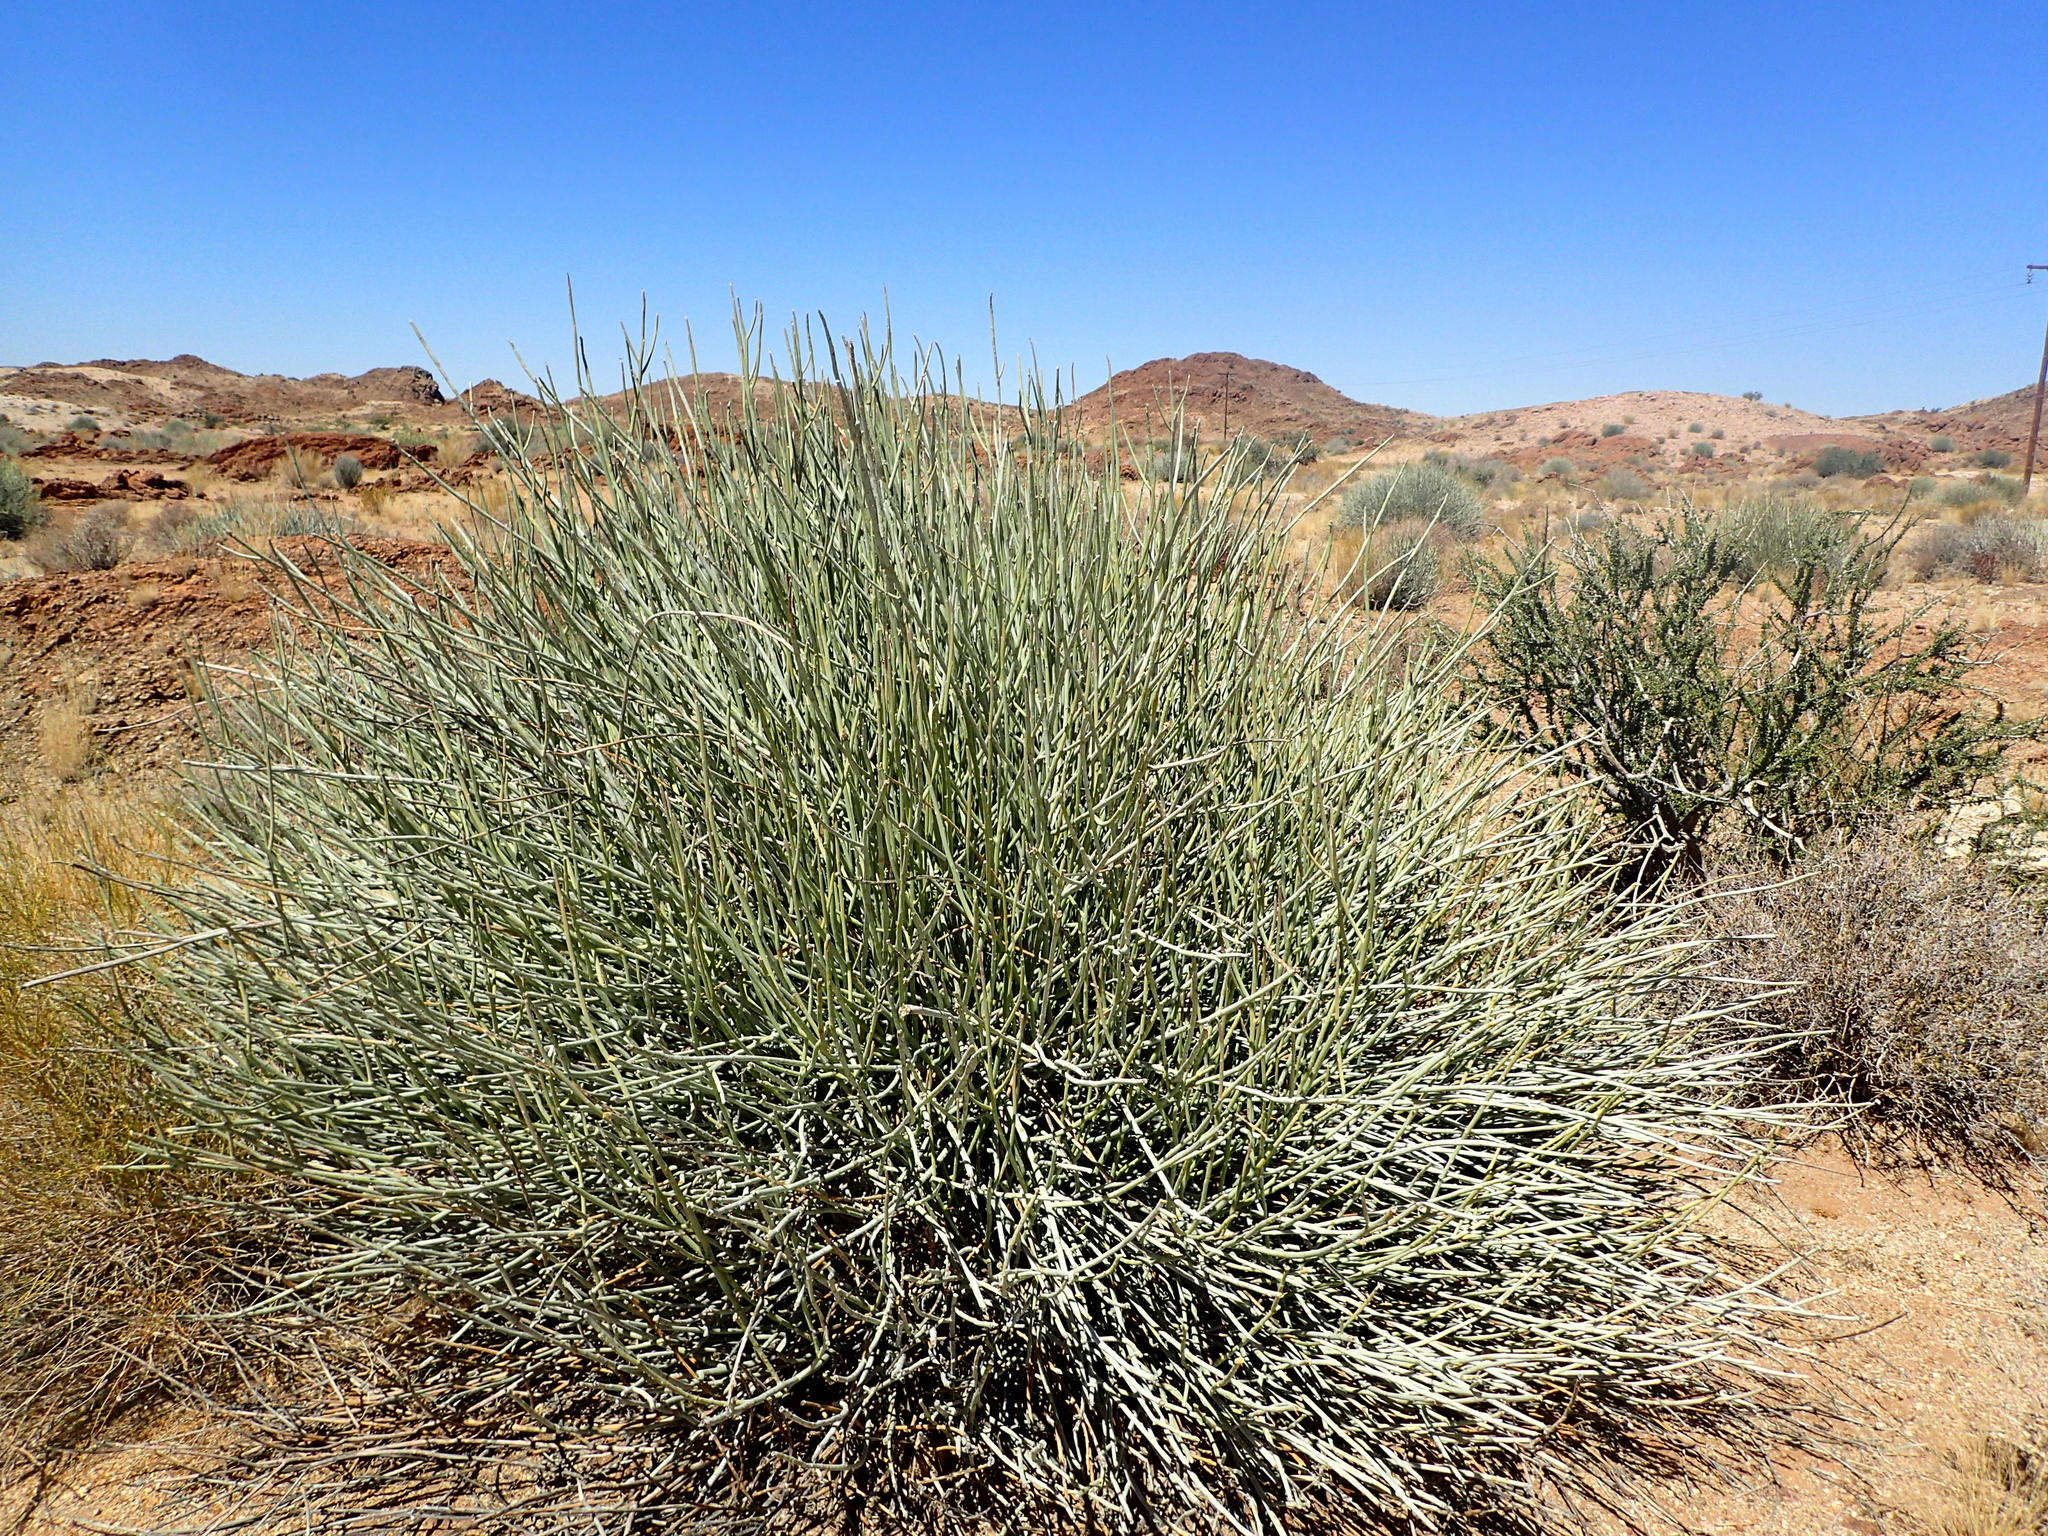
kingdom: Plantae
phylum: Tracheophyta
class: Magnoliopsida
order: Malpighiales
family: Euphorbiaceae
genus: Euphorbia
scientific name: Euphorbia gregaria
